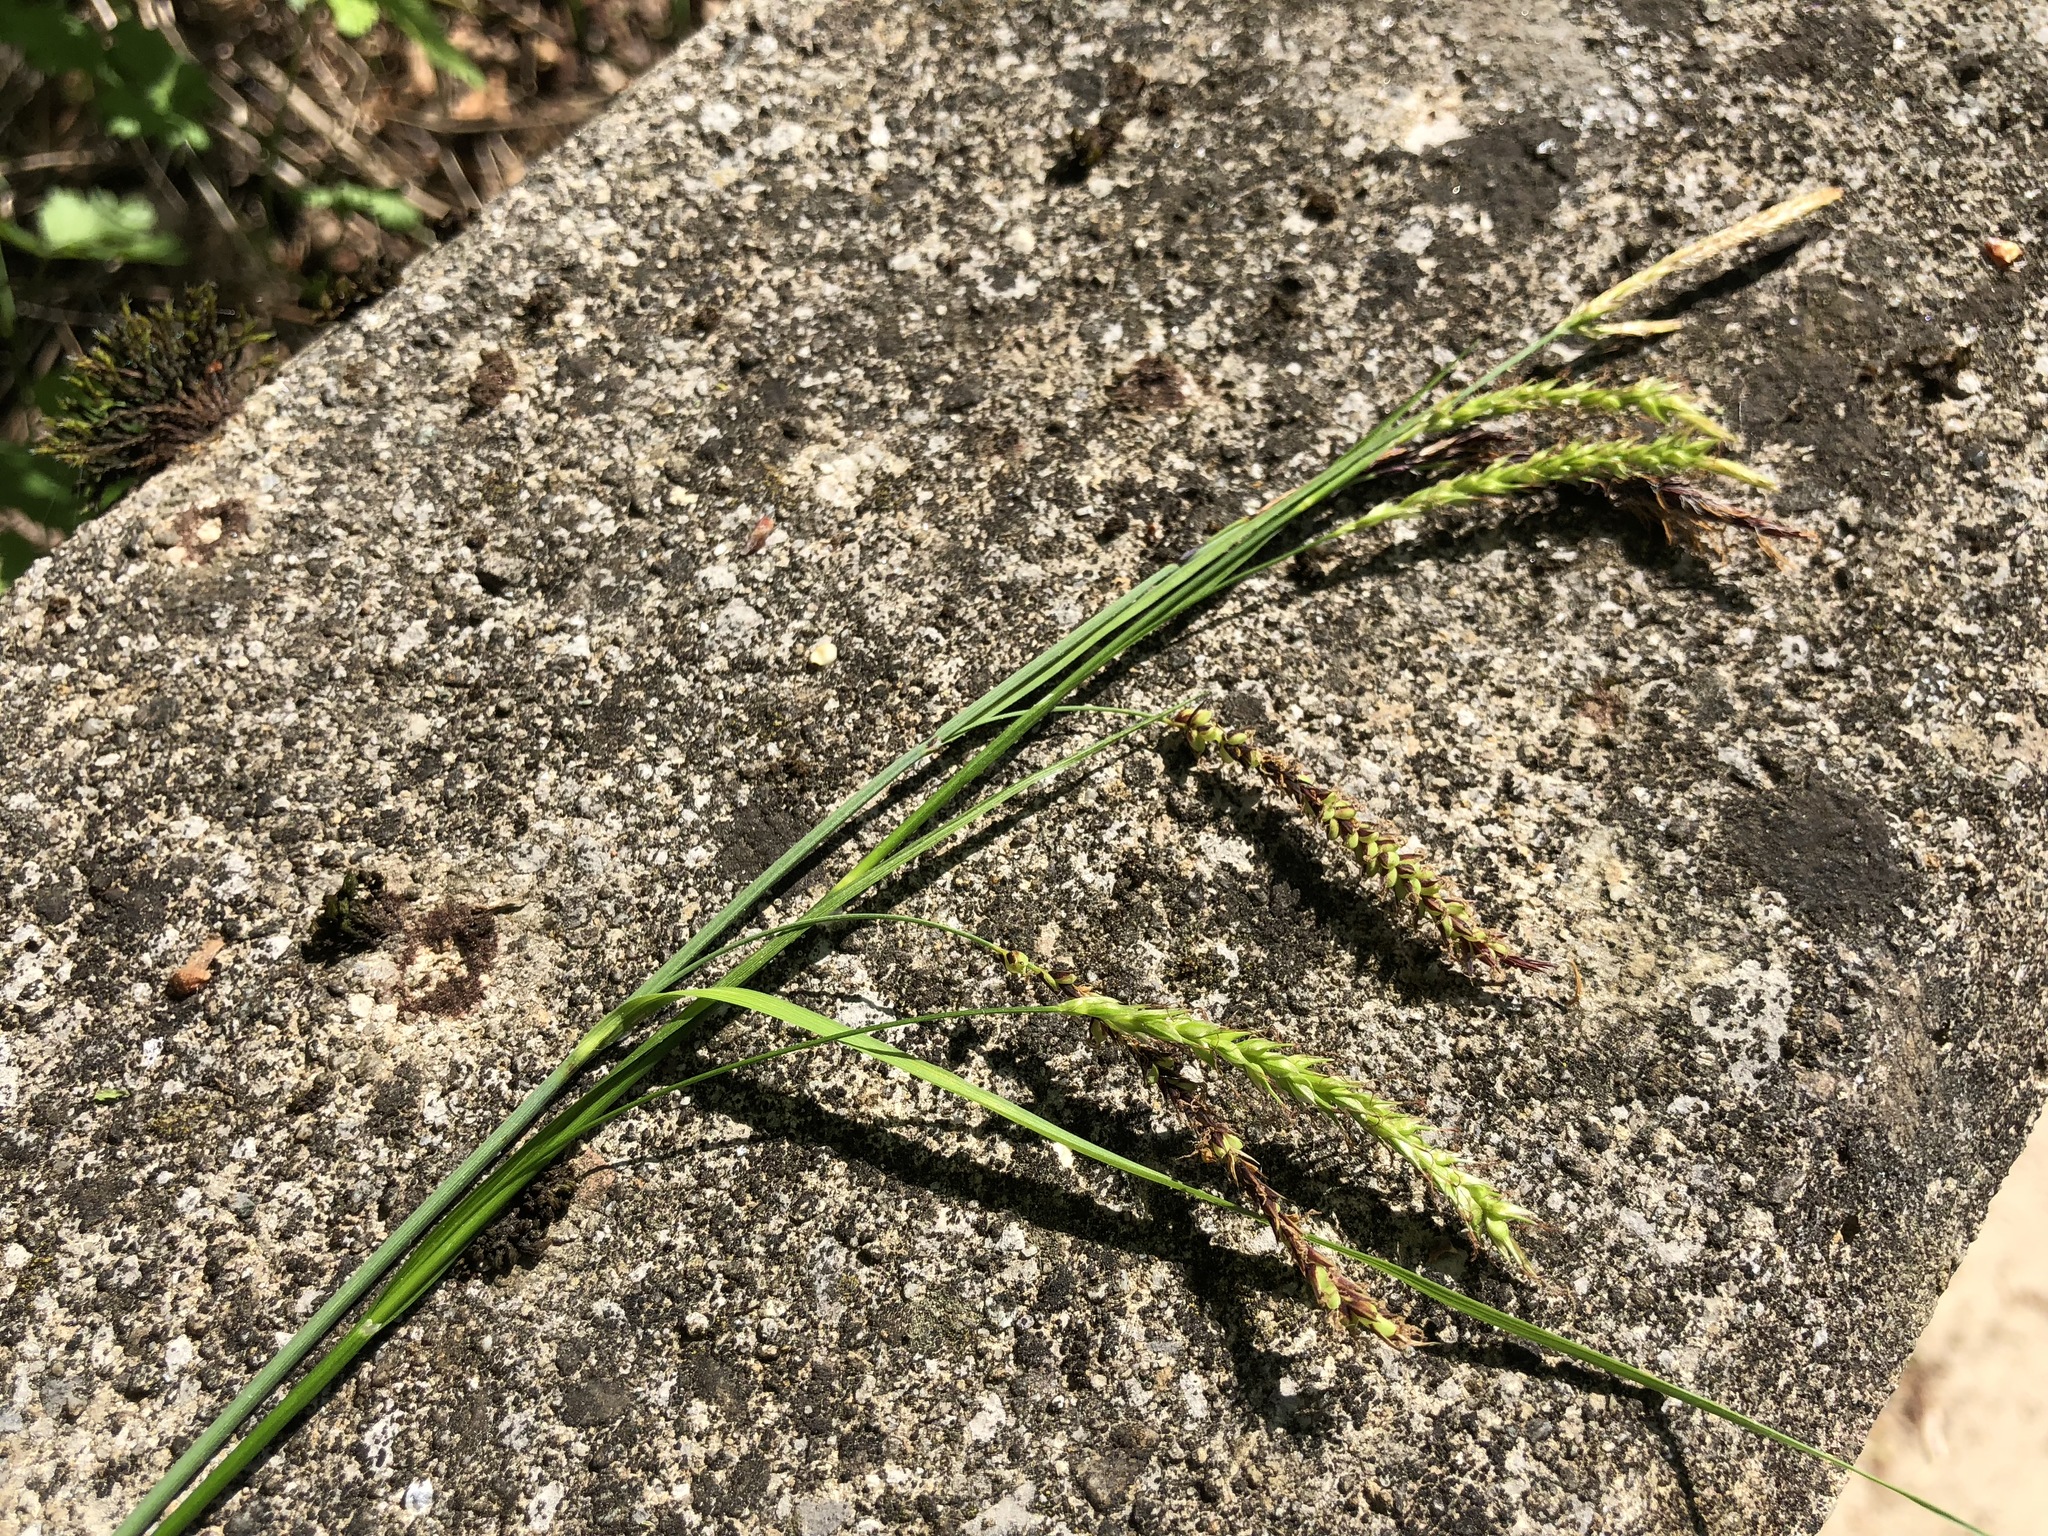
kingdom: Plantae
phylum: Tracheophyta
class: Liliopsida
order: Poales
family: Cyperaceae
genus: Carex
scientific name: Carex sylvatica
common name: Wood-sedge
